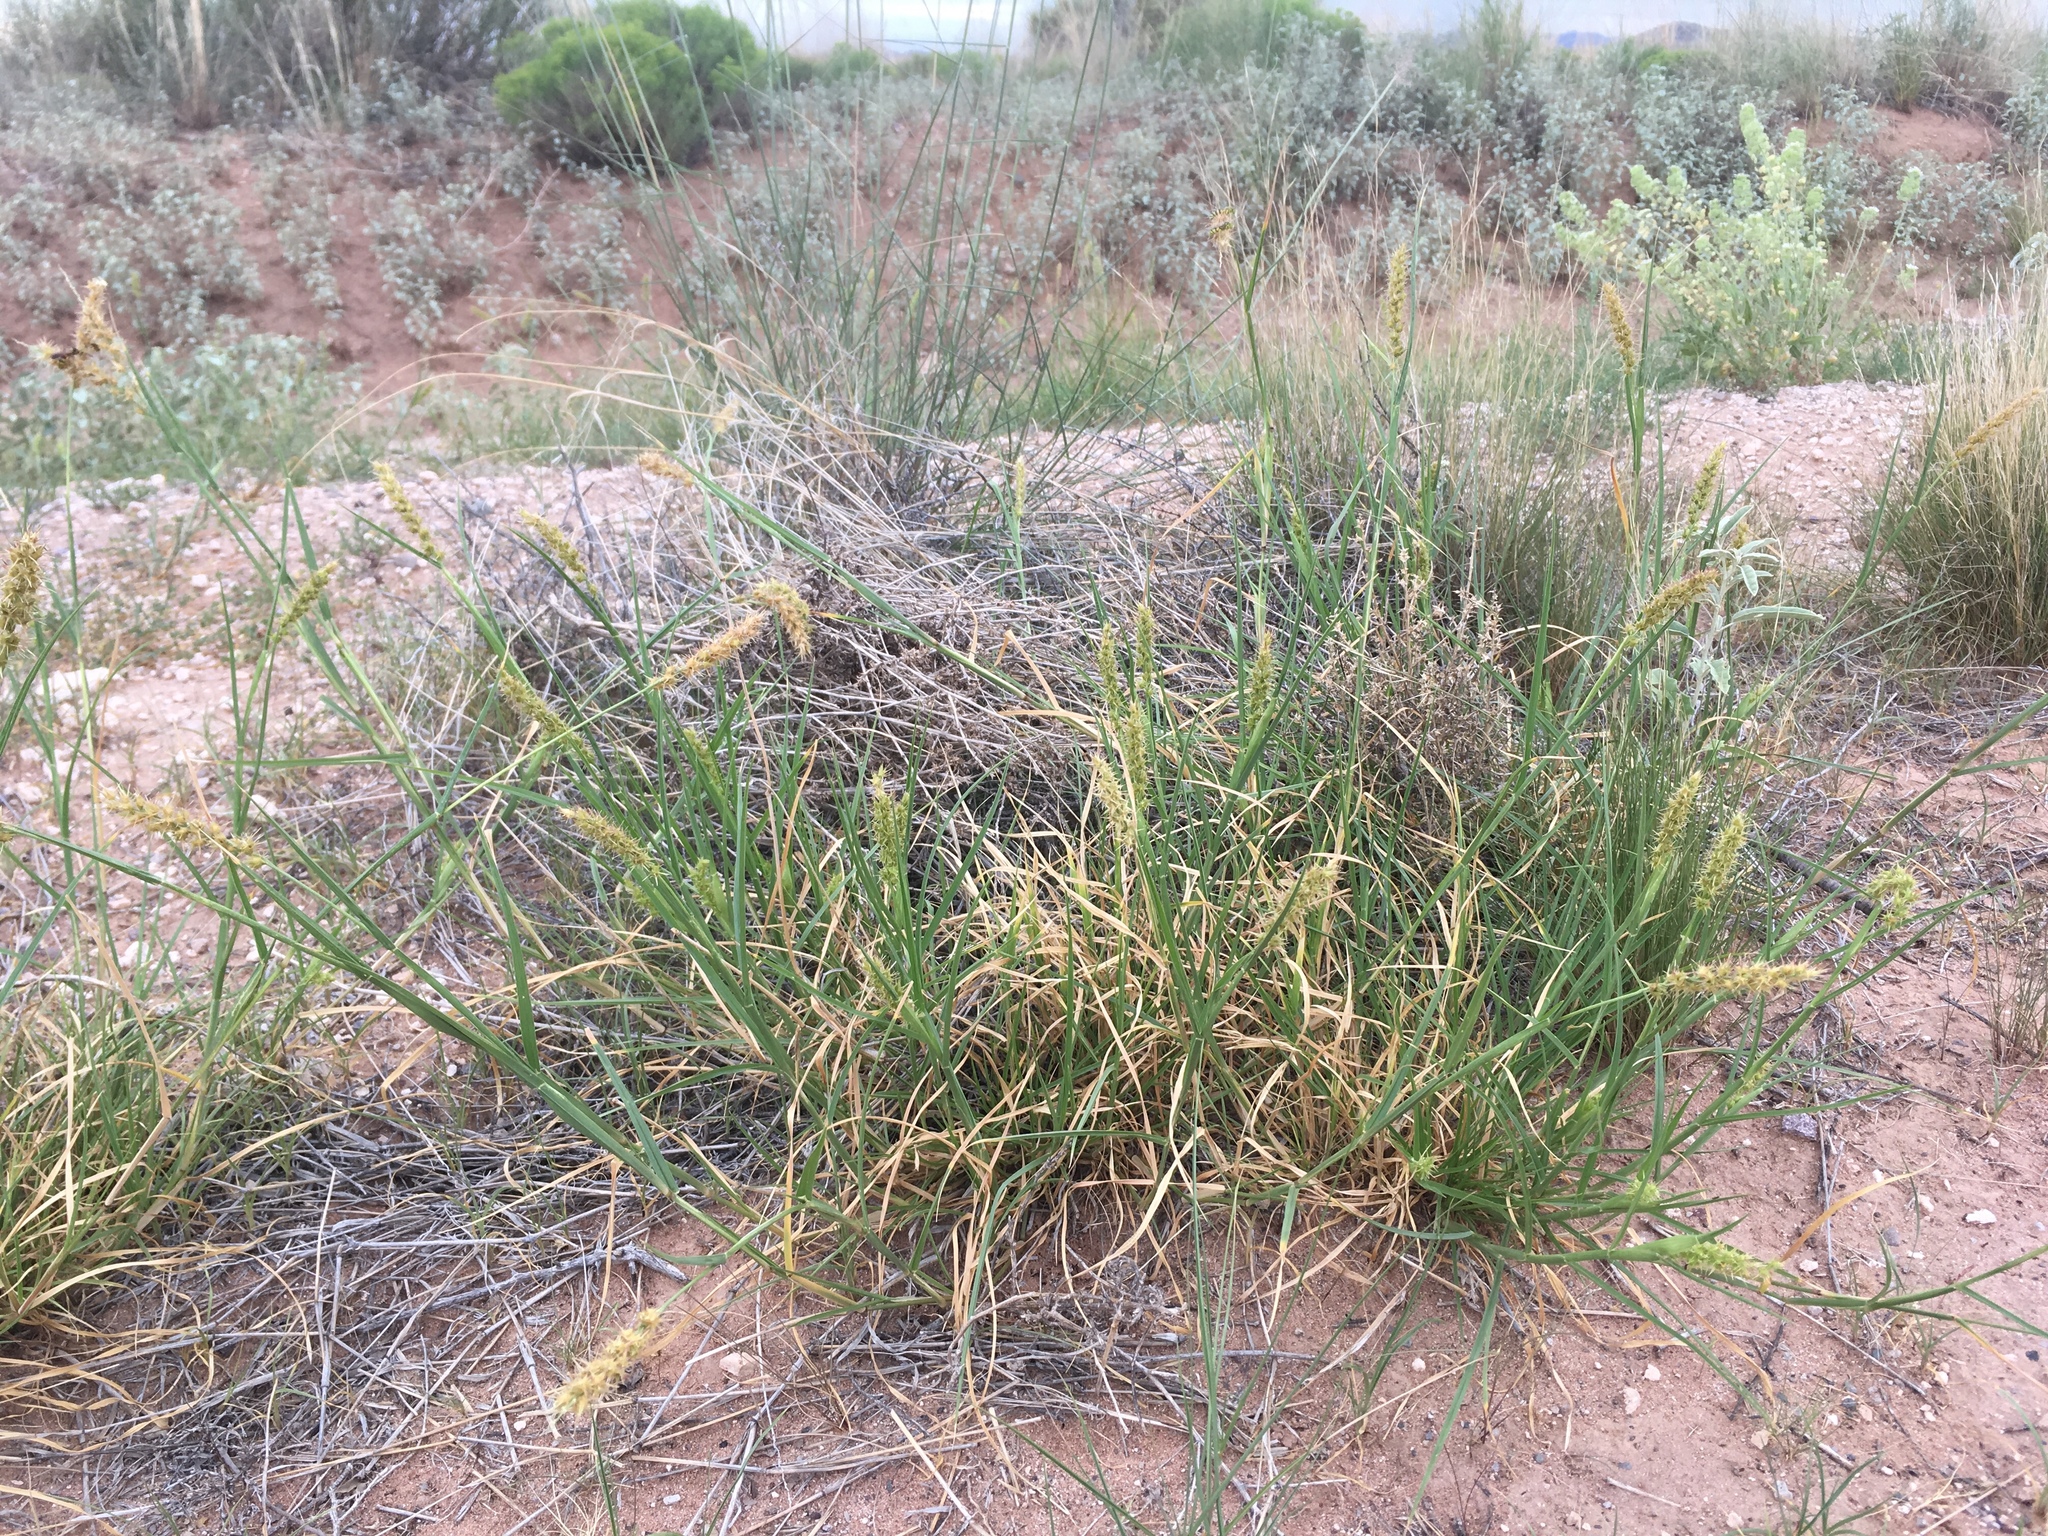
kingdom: Plantae
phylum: Tracheophyta
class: Liliopsida
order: Poales
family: Poaceae
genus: Cenchrus
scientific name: Cenchrus spinifex
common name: Coast sandbur
